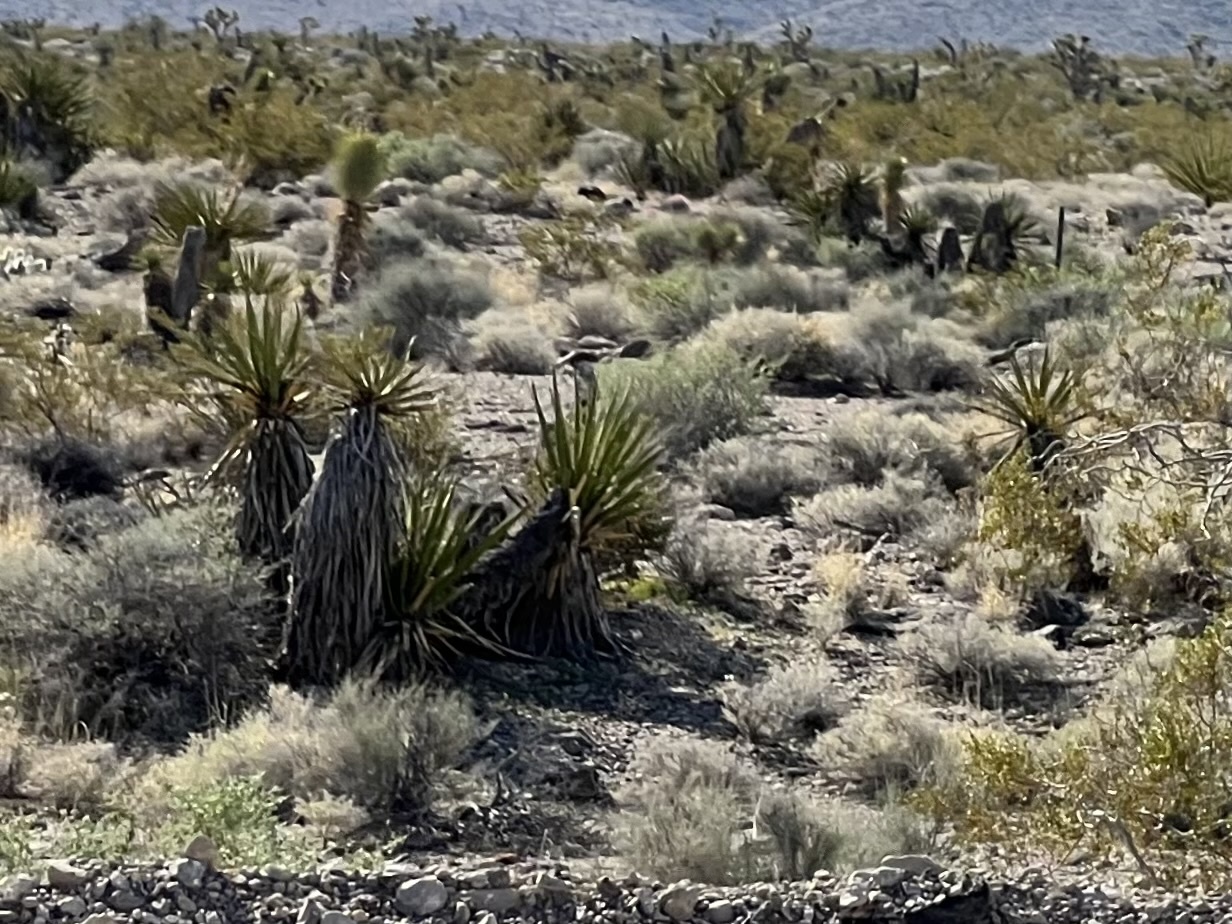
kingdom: Plantae
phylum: Tracheophyta
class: Liliopsida
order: Asparagales
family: Asparagaceae
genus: Yucca
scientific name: Yucca schidigera
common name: Mojave yucca
